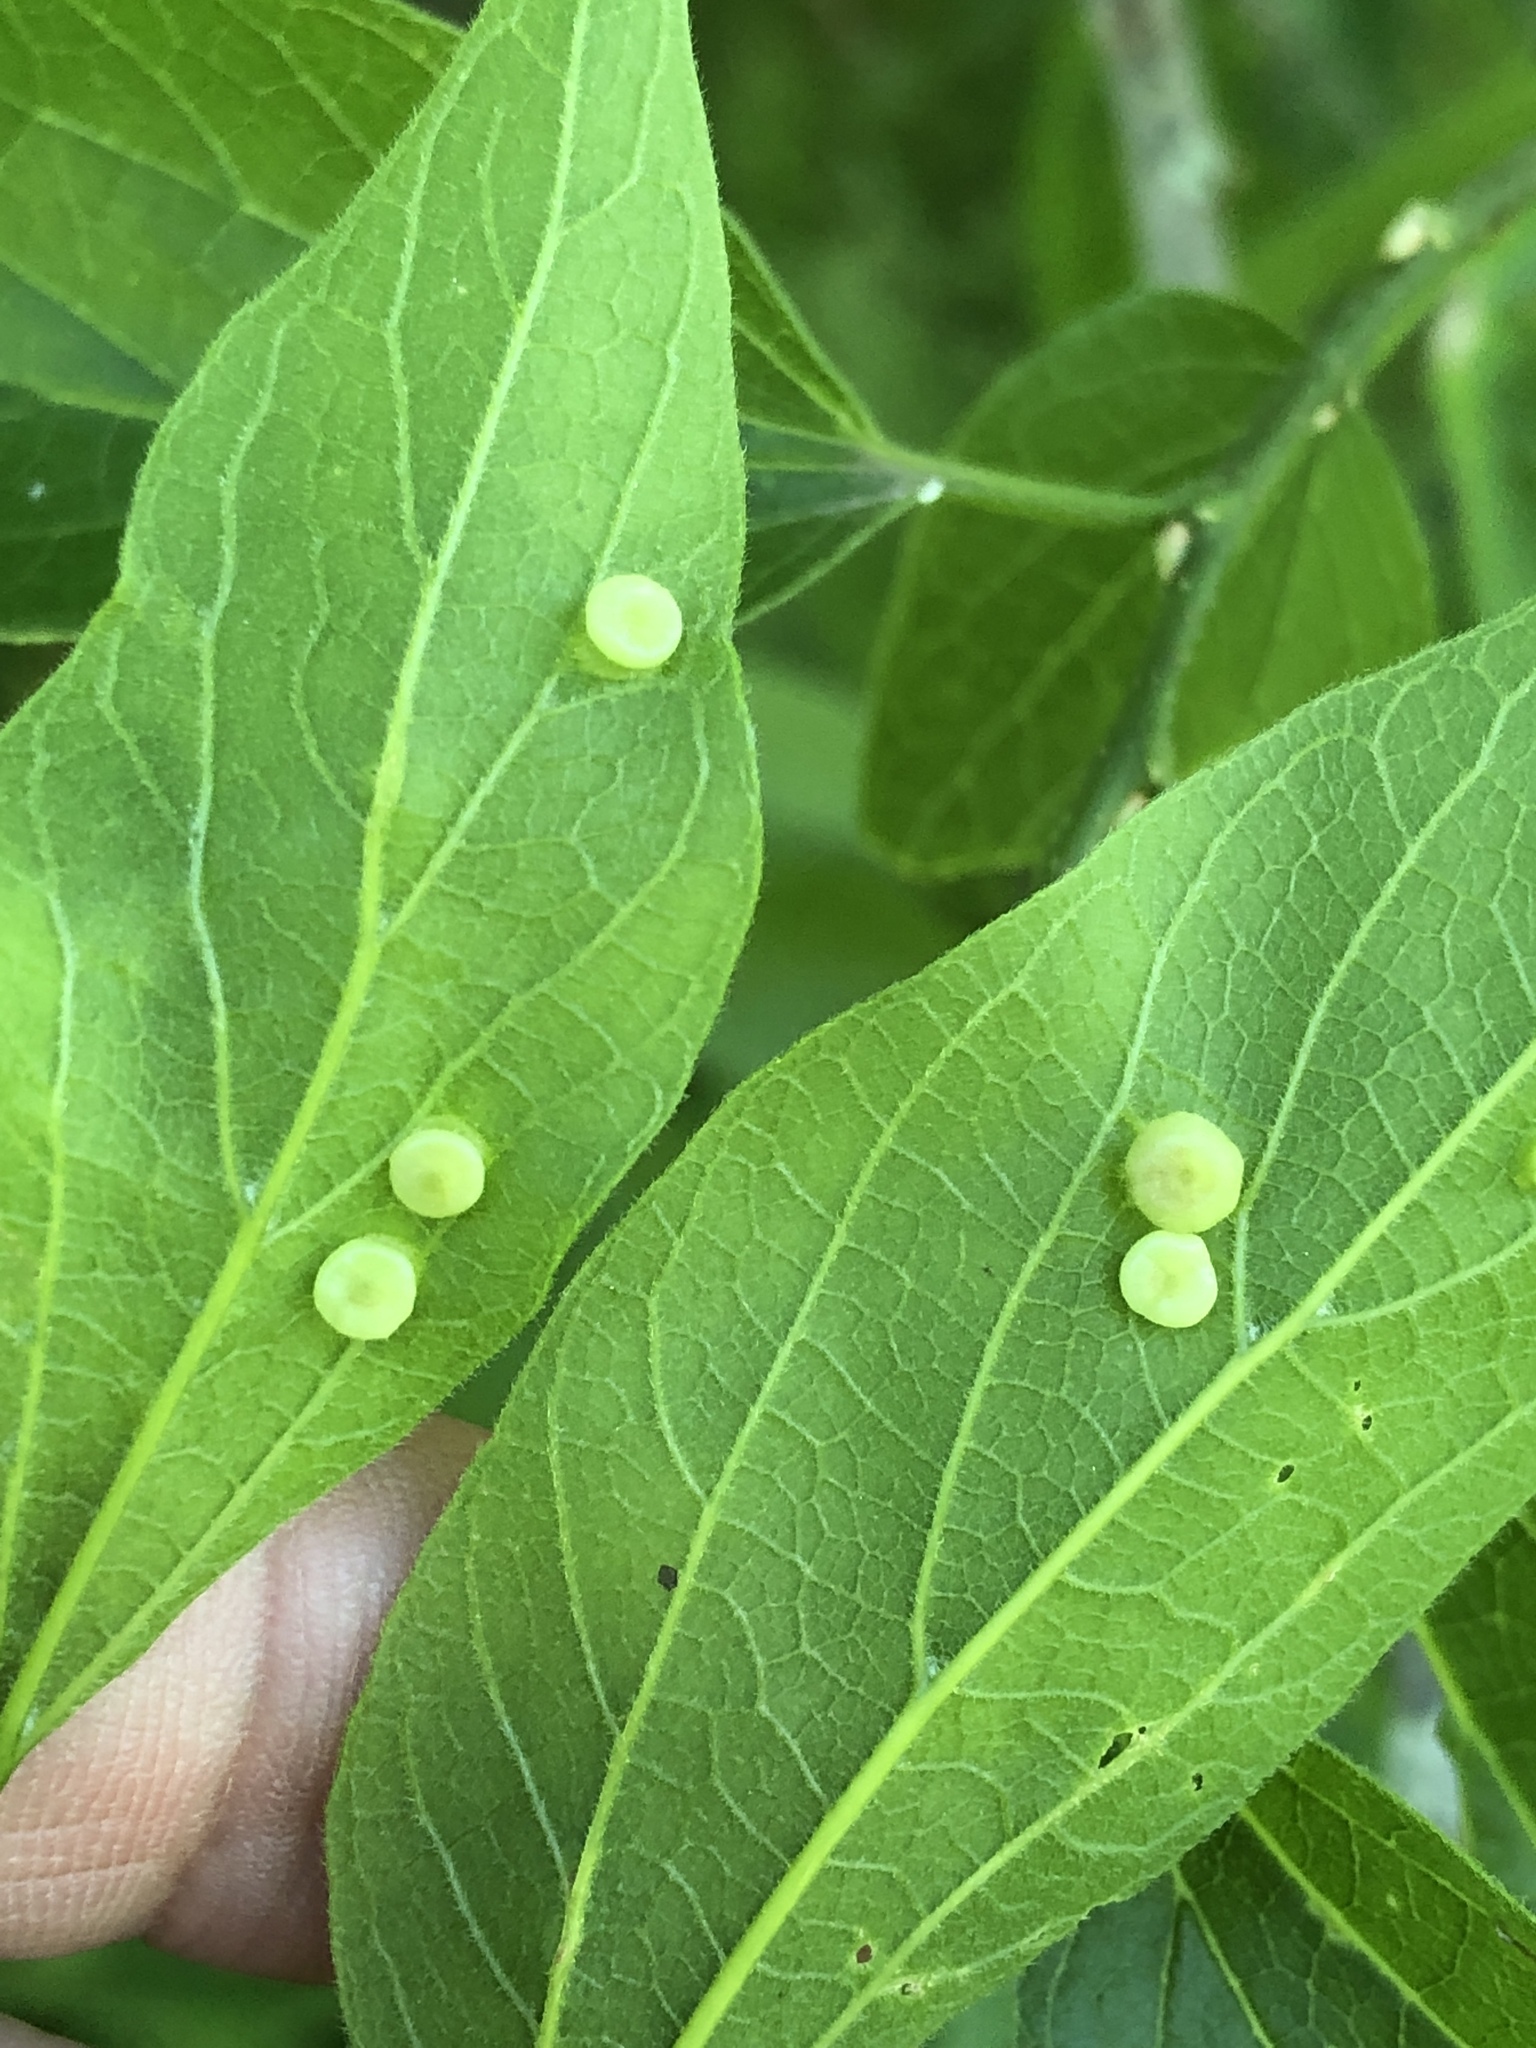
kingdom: Animalia
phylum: Arthropoda
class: Insecta
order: Hemiptera
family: Aphalaridae
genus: Pachypsylla
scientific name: Pachypsylla celtidismamma
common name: Hackberry nipplegall psyllid
